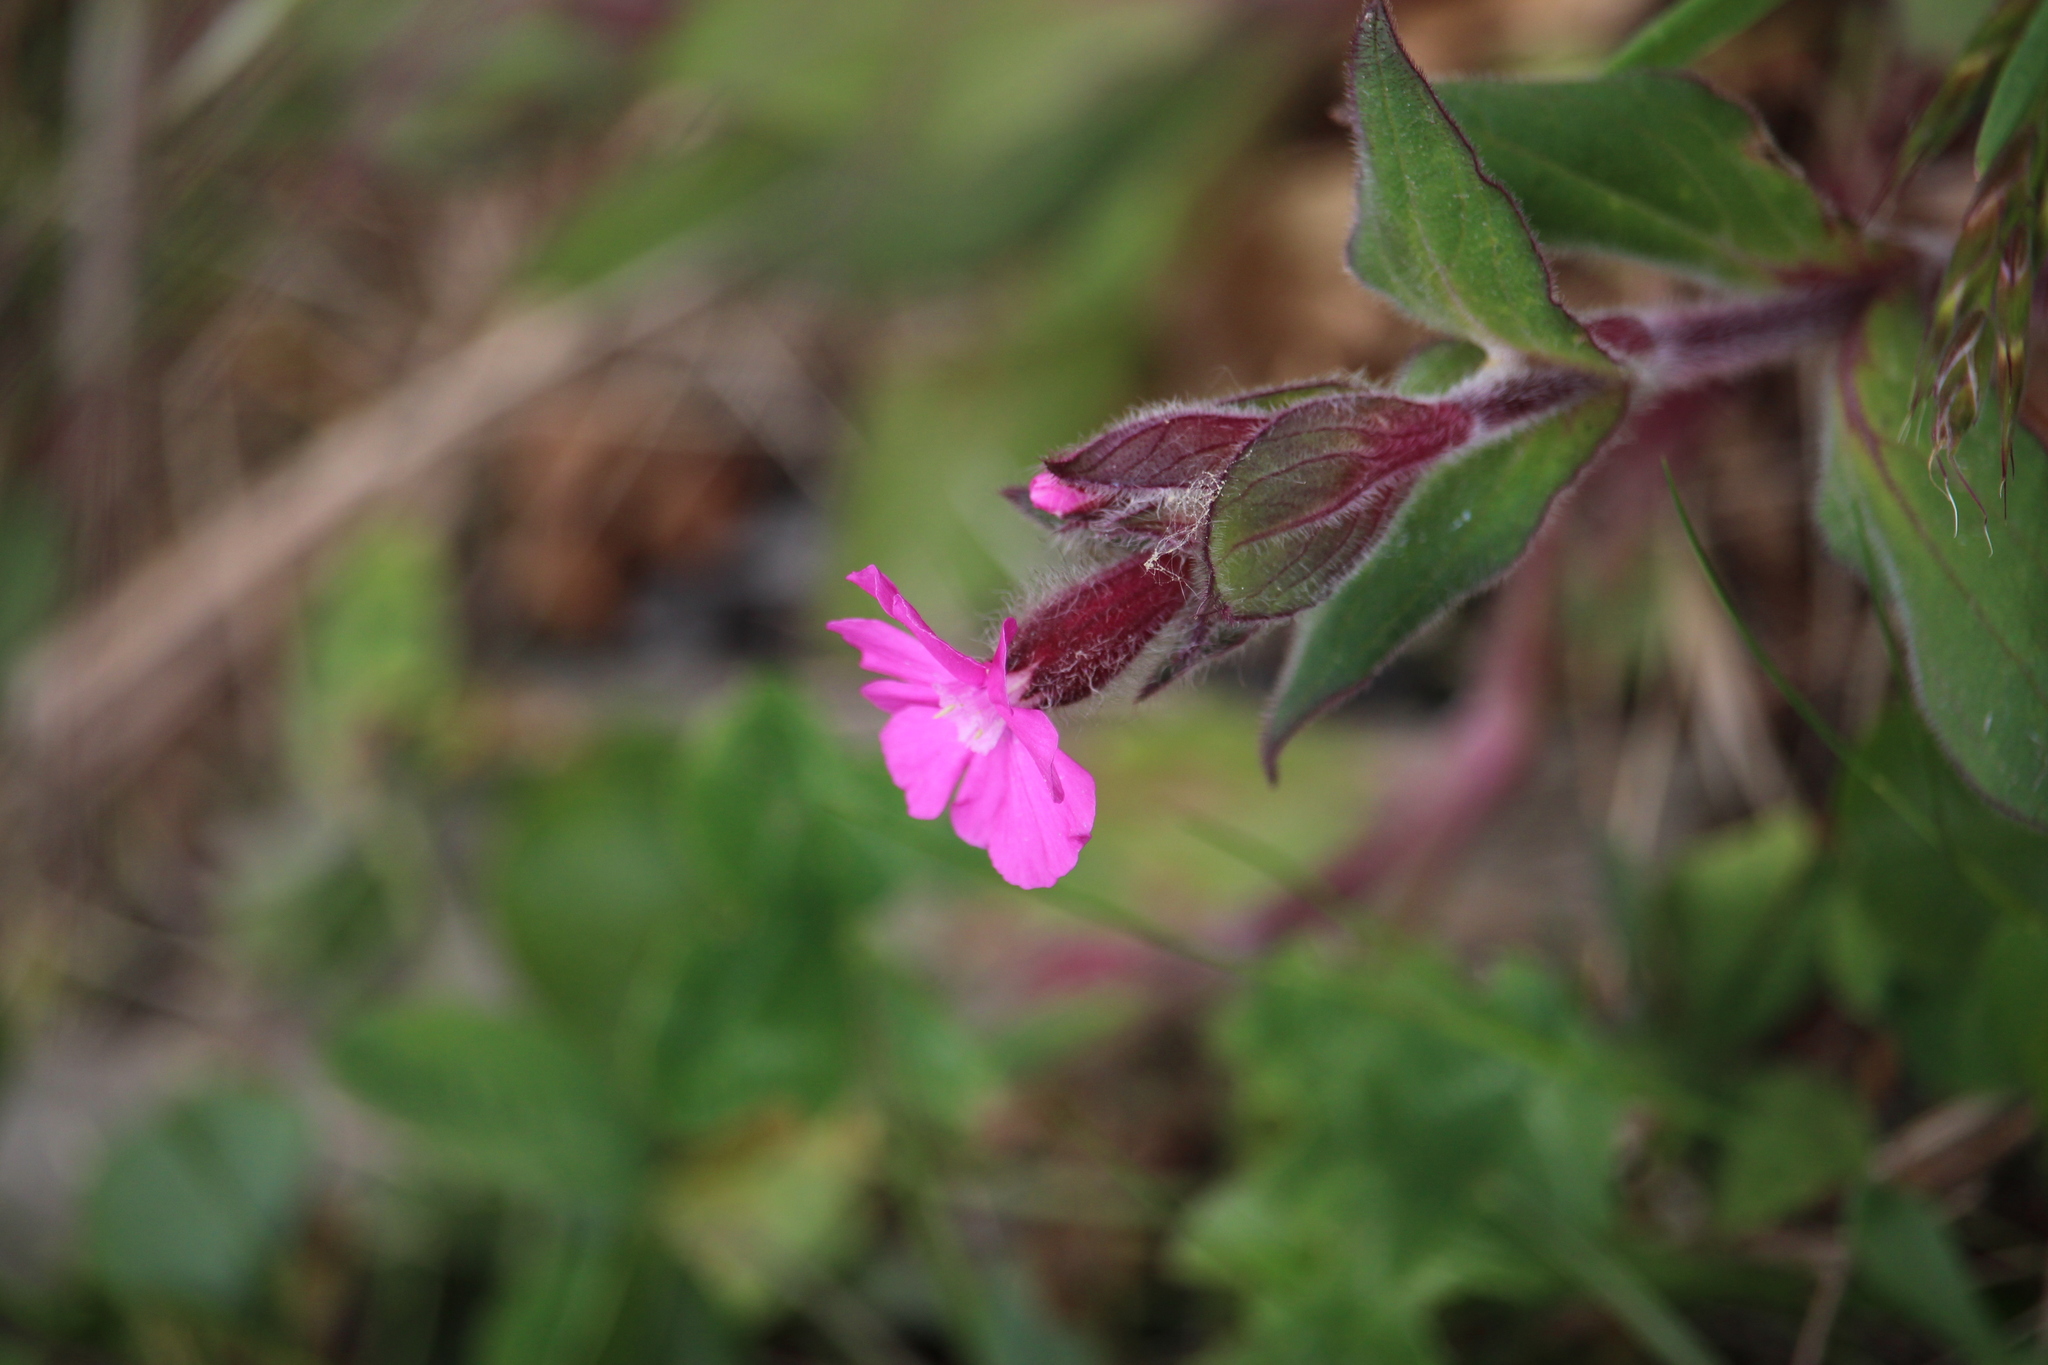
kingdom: Plantae
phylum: Tracheophyta
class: Magnoliopsida
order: Caryophyllales
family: Caryophyllaceae
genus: Silene
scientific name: Silene dioica
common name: Red campion
